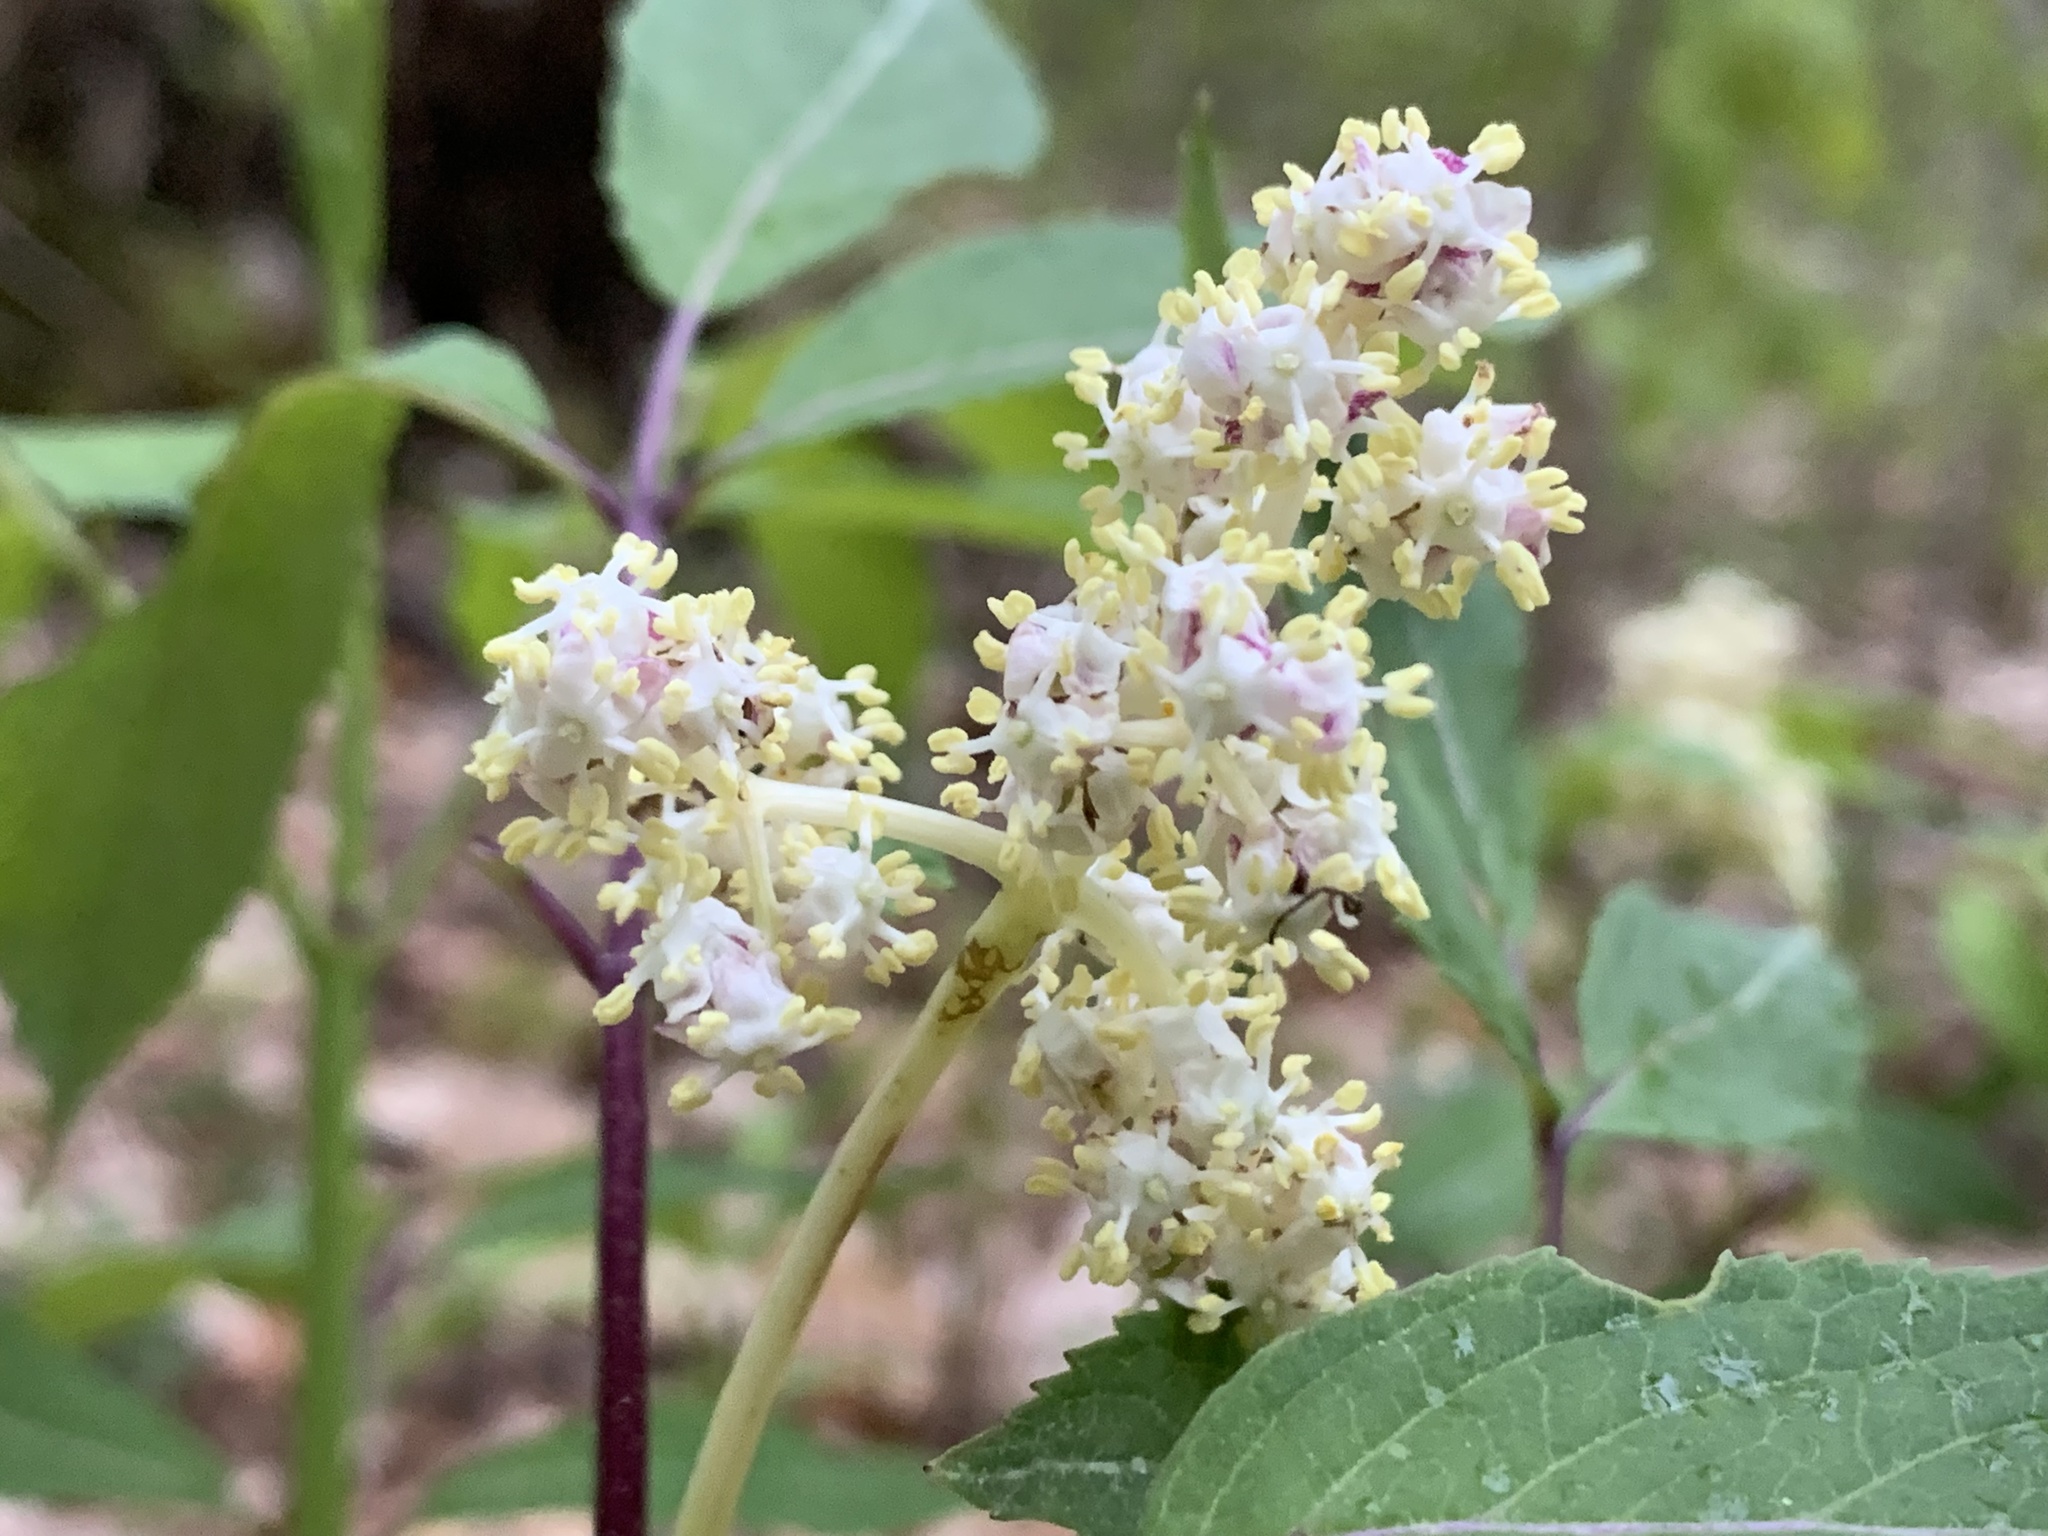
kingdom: Plantae
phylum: Tracheophyta
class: Magnoliopsida
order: Dipsacales
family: Viburnaceae
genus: Sambucus
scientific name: Sambucus racemosa
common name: Red-berried elder
